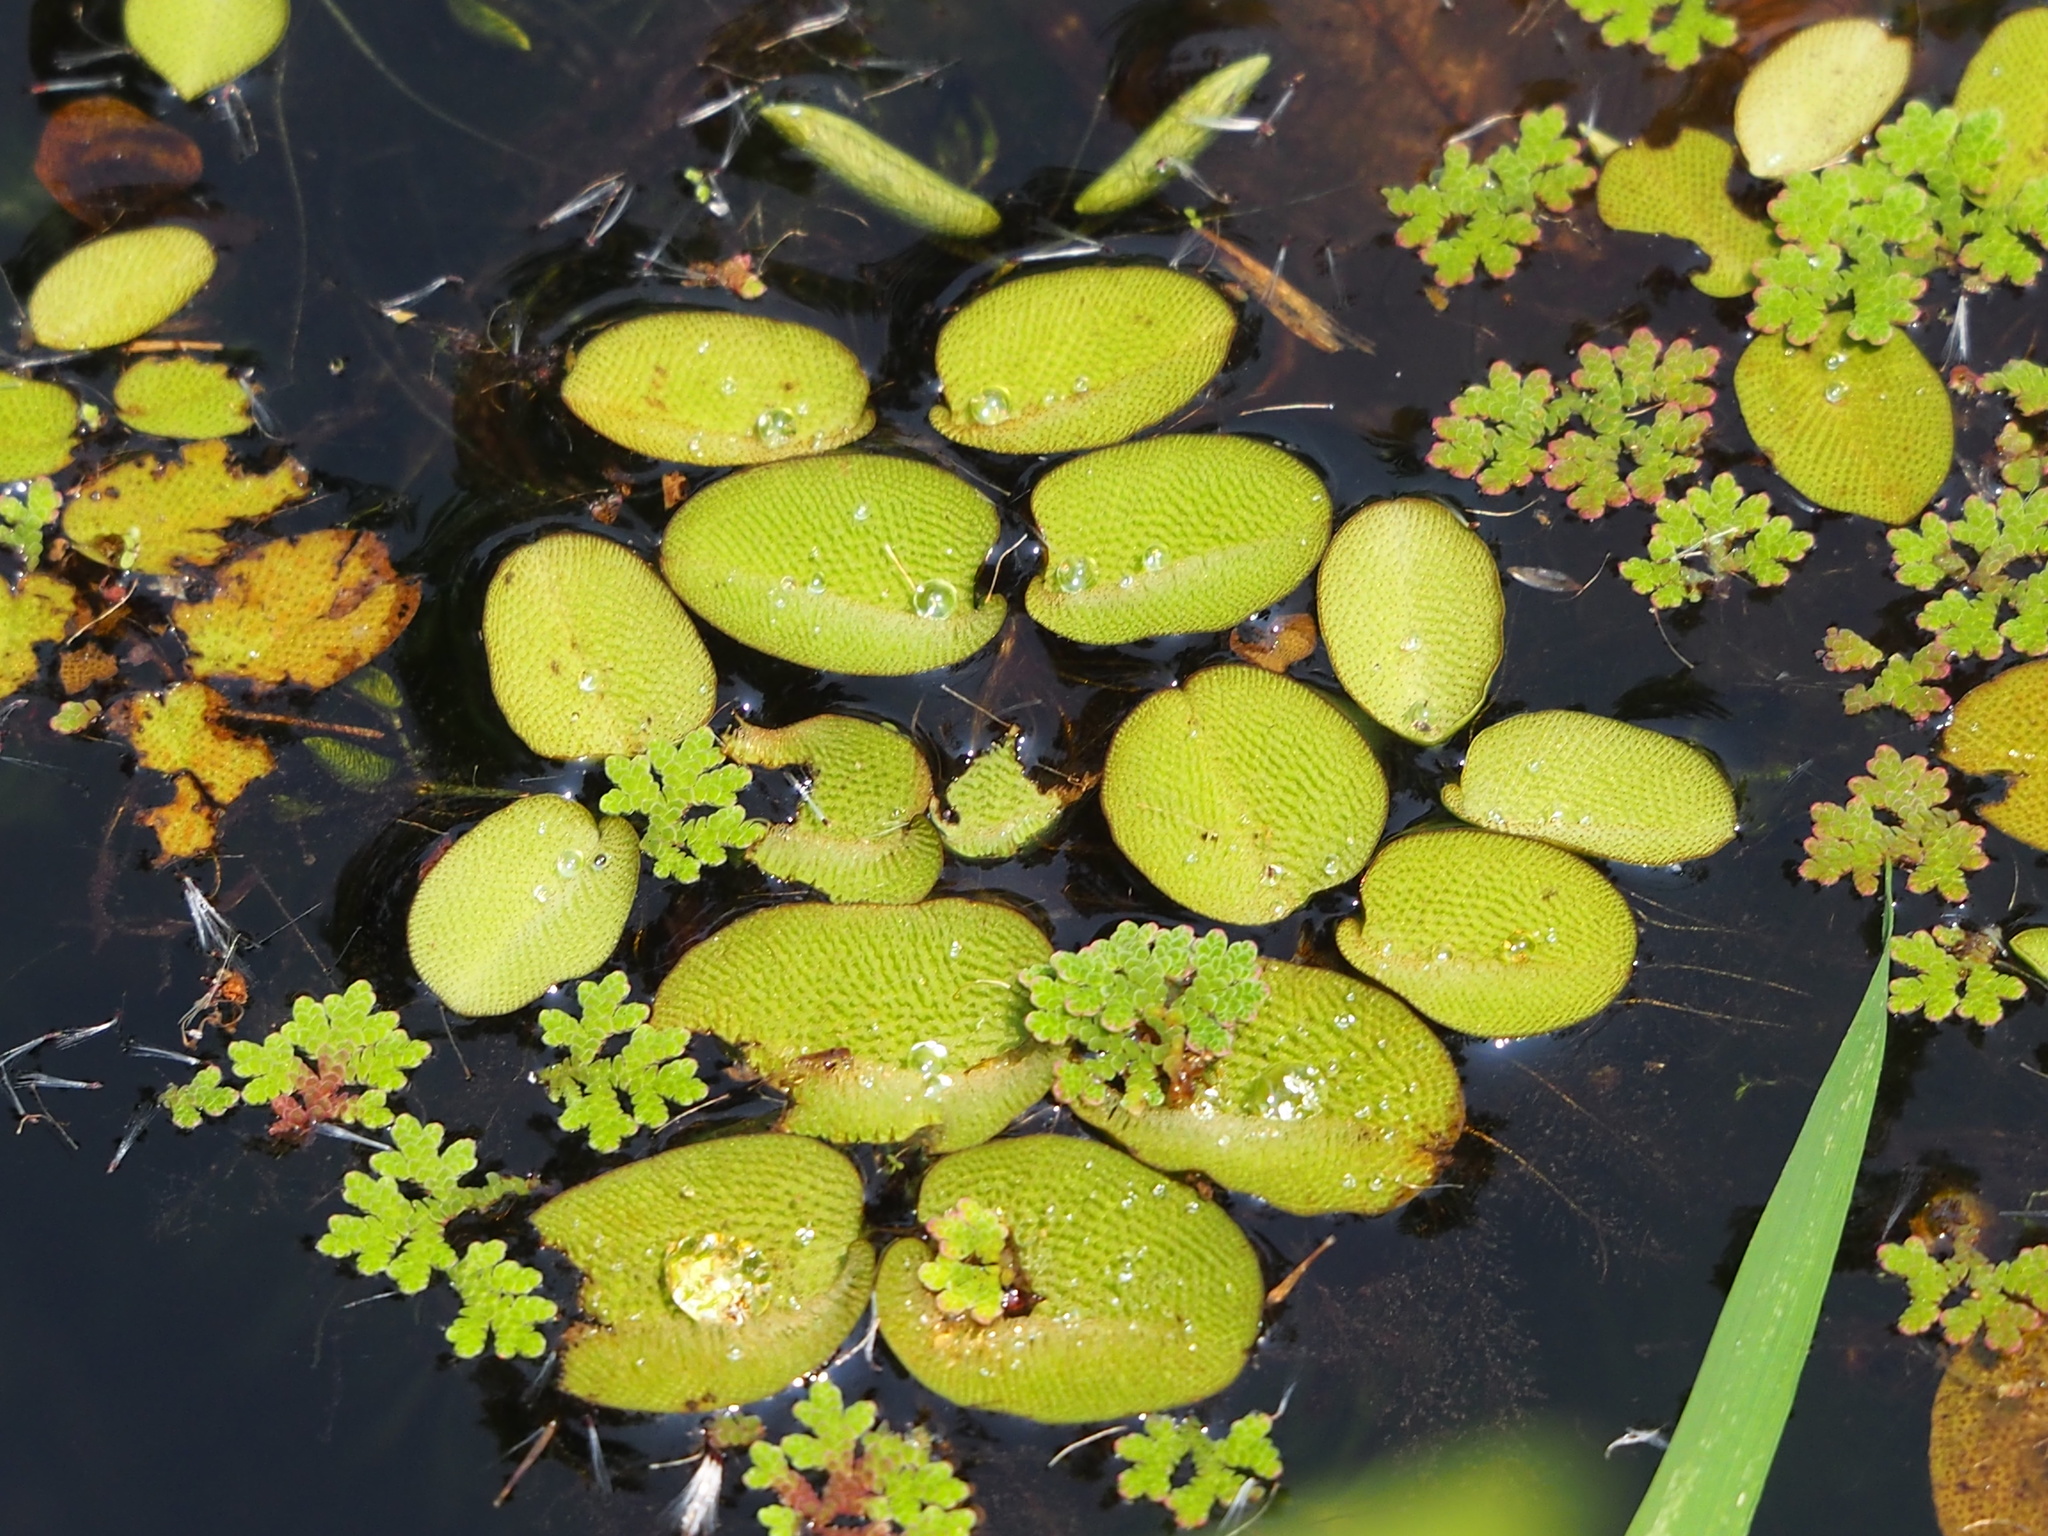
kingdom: Plantae
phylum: Tracheophyta
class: Polypodiopsida
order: Salviniales
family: Salviniaceae
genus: Salvinia
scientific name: Salvinia molesta
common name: Kariba weed
